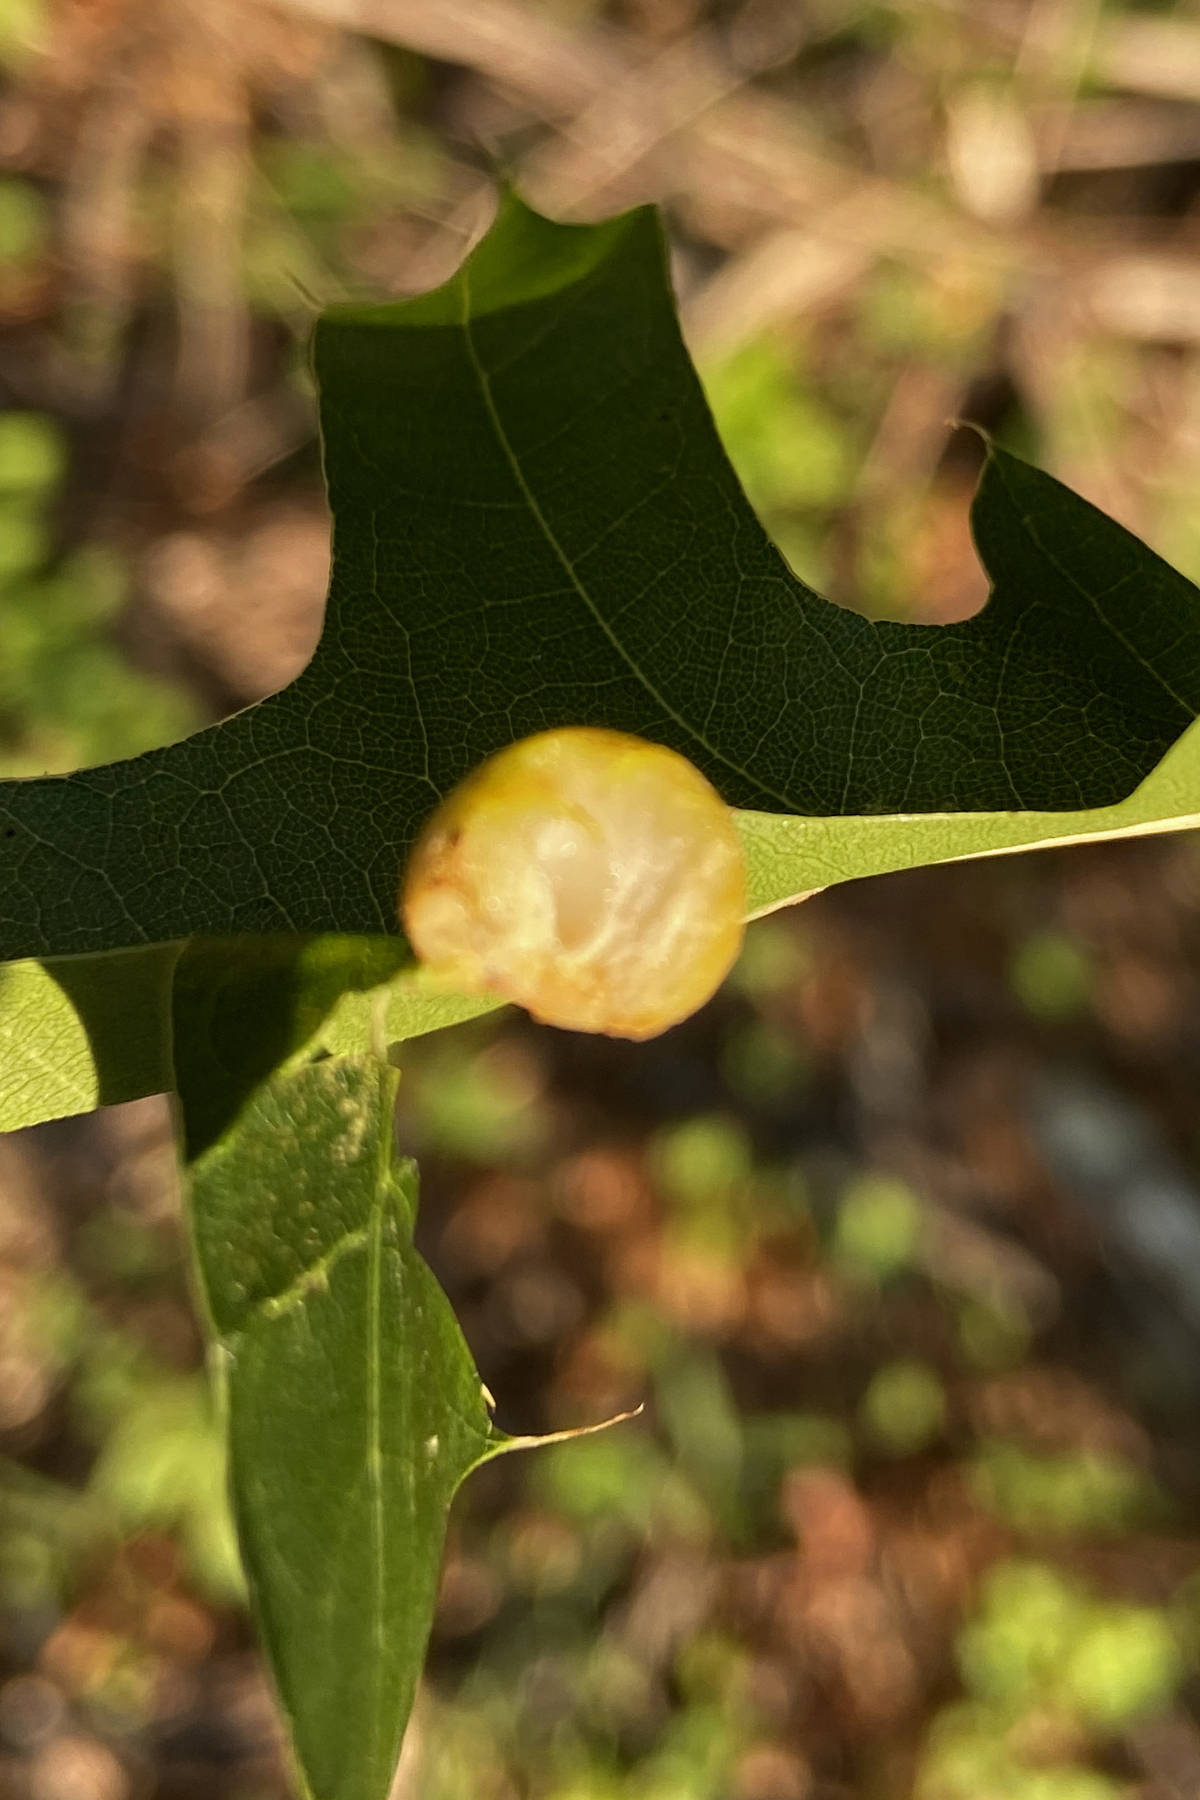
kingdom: Animalia
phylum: Arthropoda
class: Insecta
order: Diptera
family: Cecidomyiidae
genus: Polystepha
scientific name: Polystepha pilulae
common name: Oak leaf gall midge
